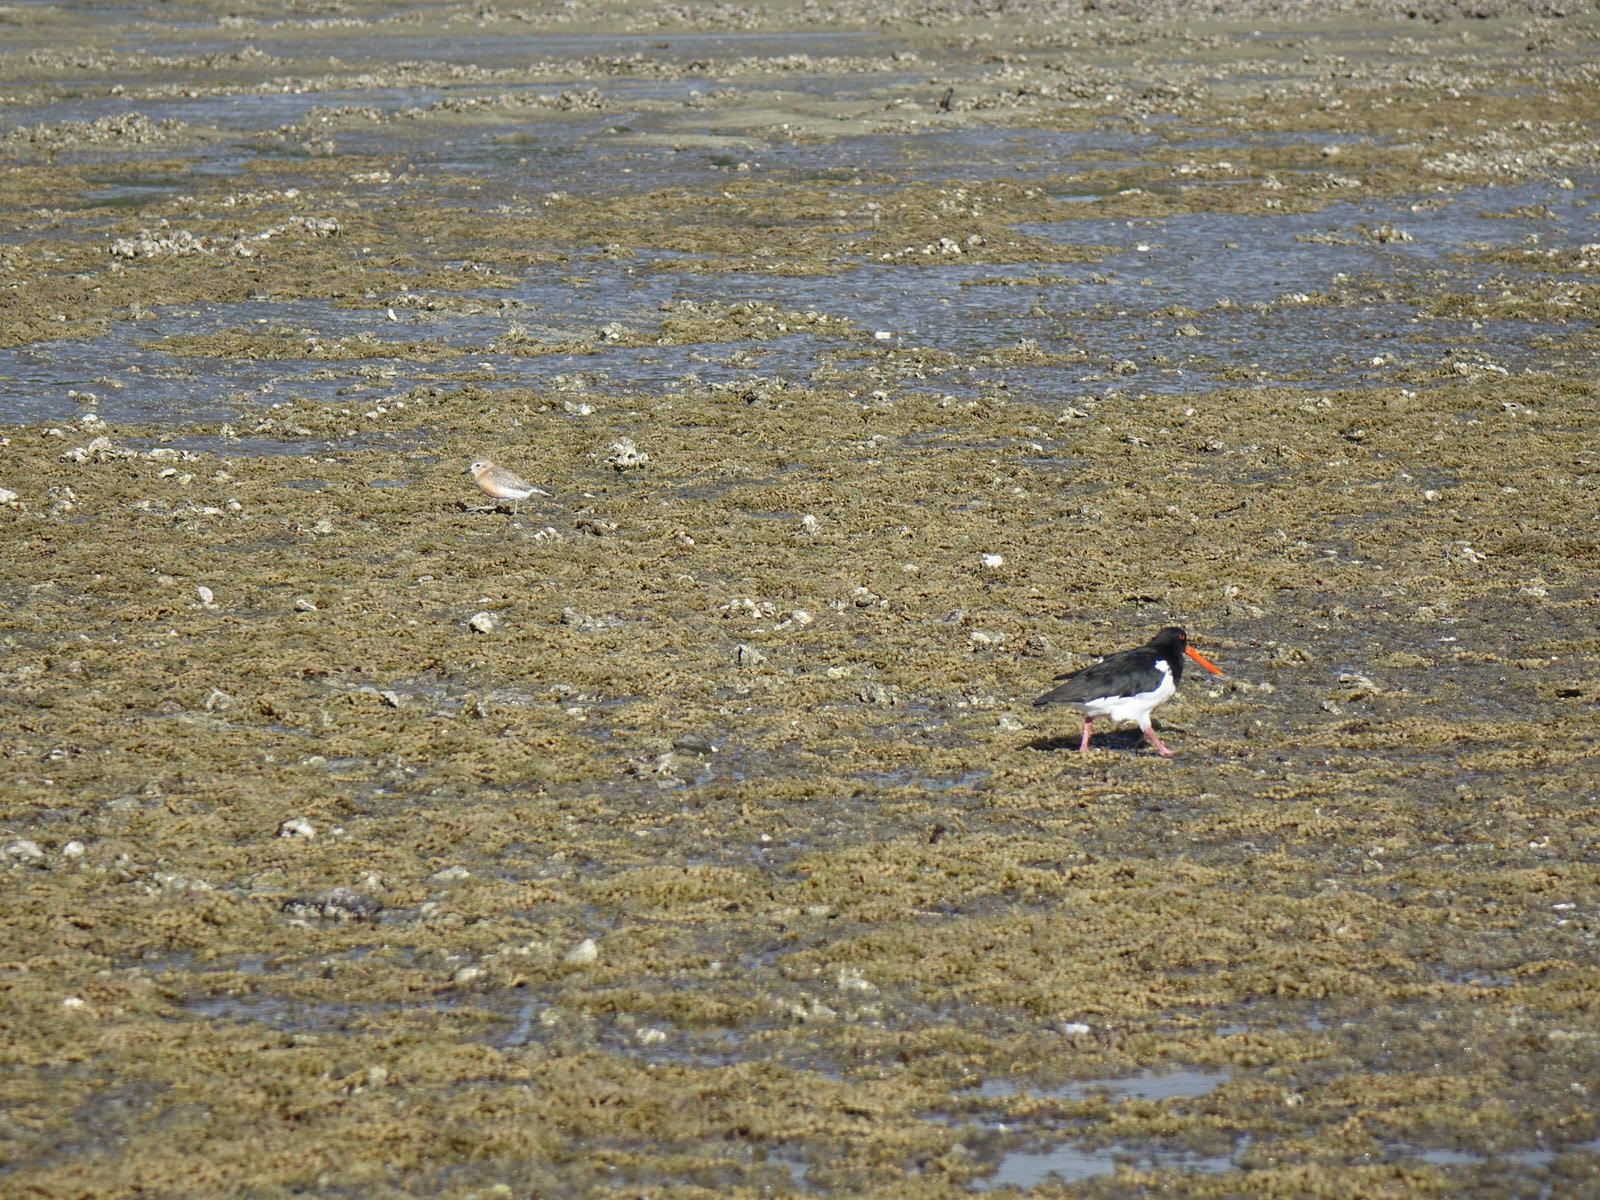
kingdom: Animalia
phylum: Chordata
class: Aves
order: Charadriiformes
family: Charadriidae
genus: Anarhynchus
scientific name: Anarhynchus
